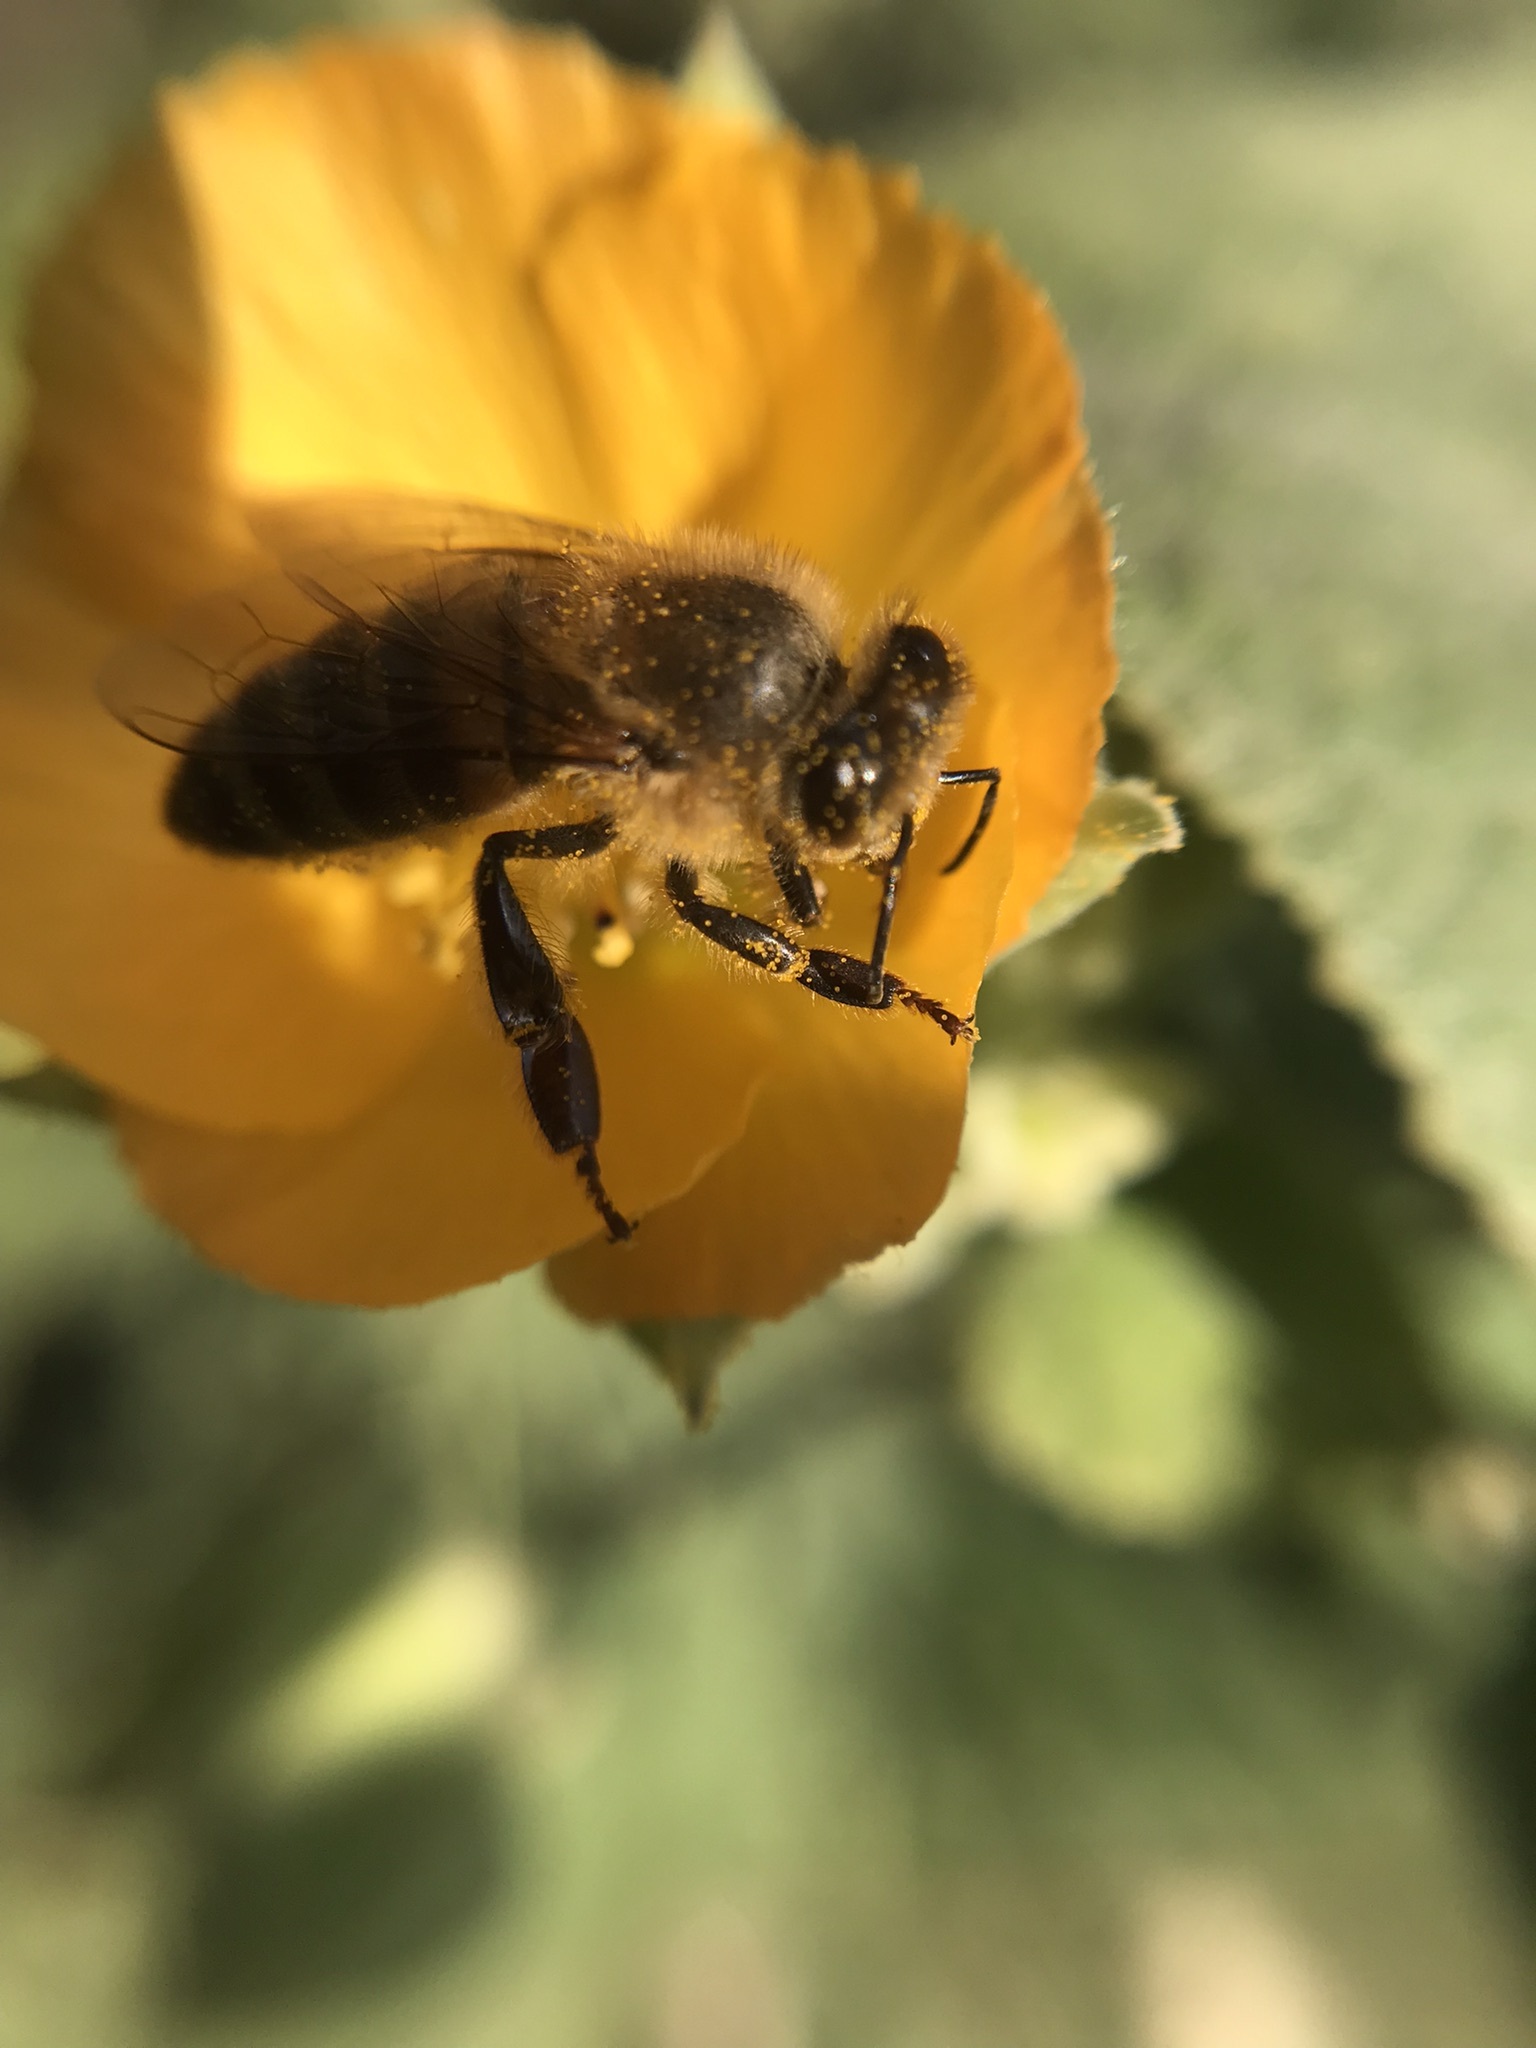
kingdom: Animalia
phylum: Arthropoda
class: Insecta
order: Hymenoptera
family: Apidae
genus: Apis
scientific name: Apis mellifera
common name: Honey bee
